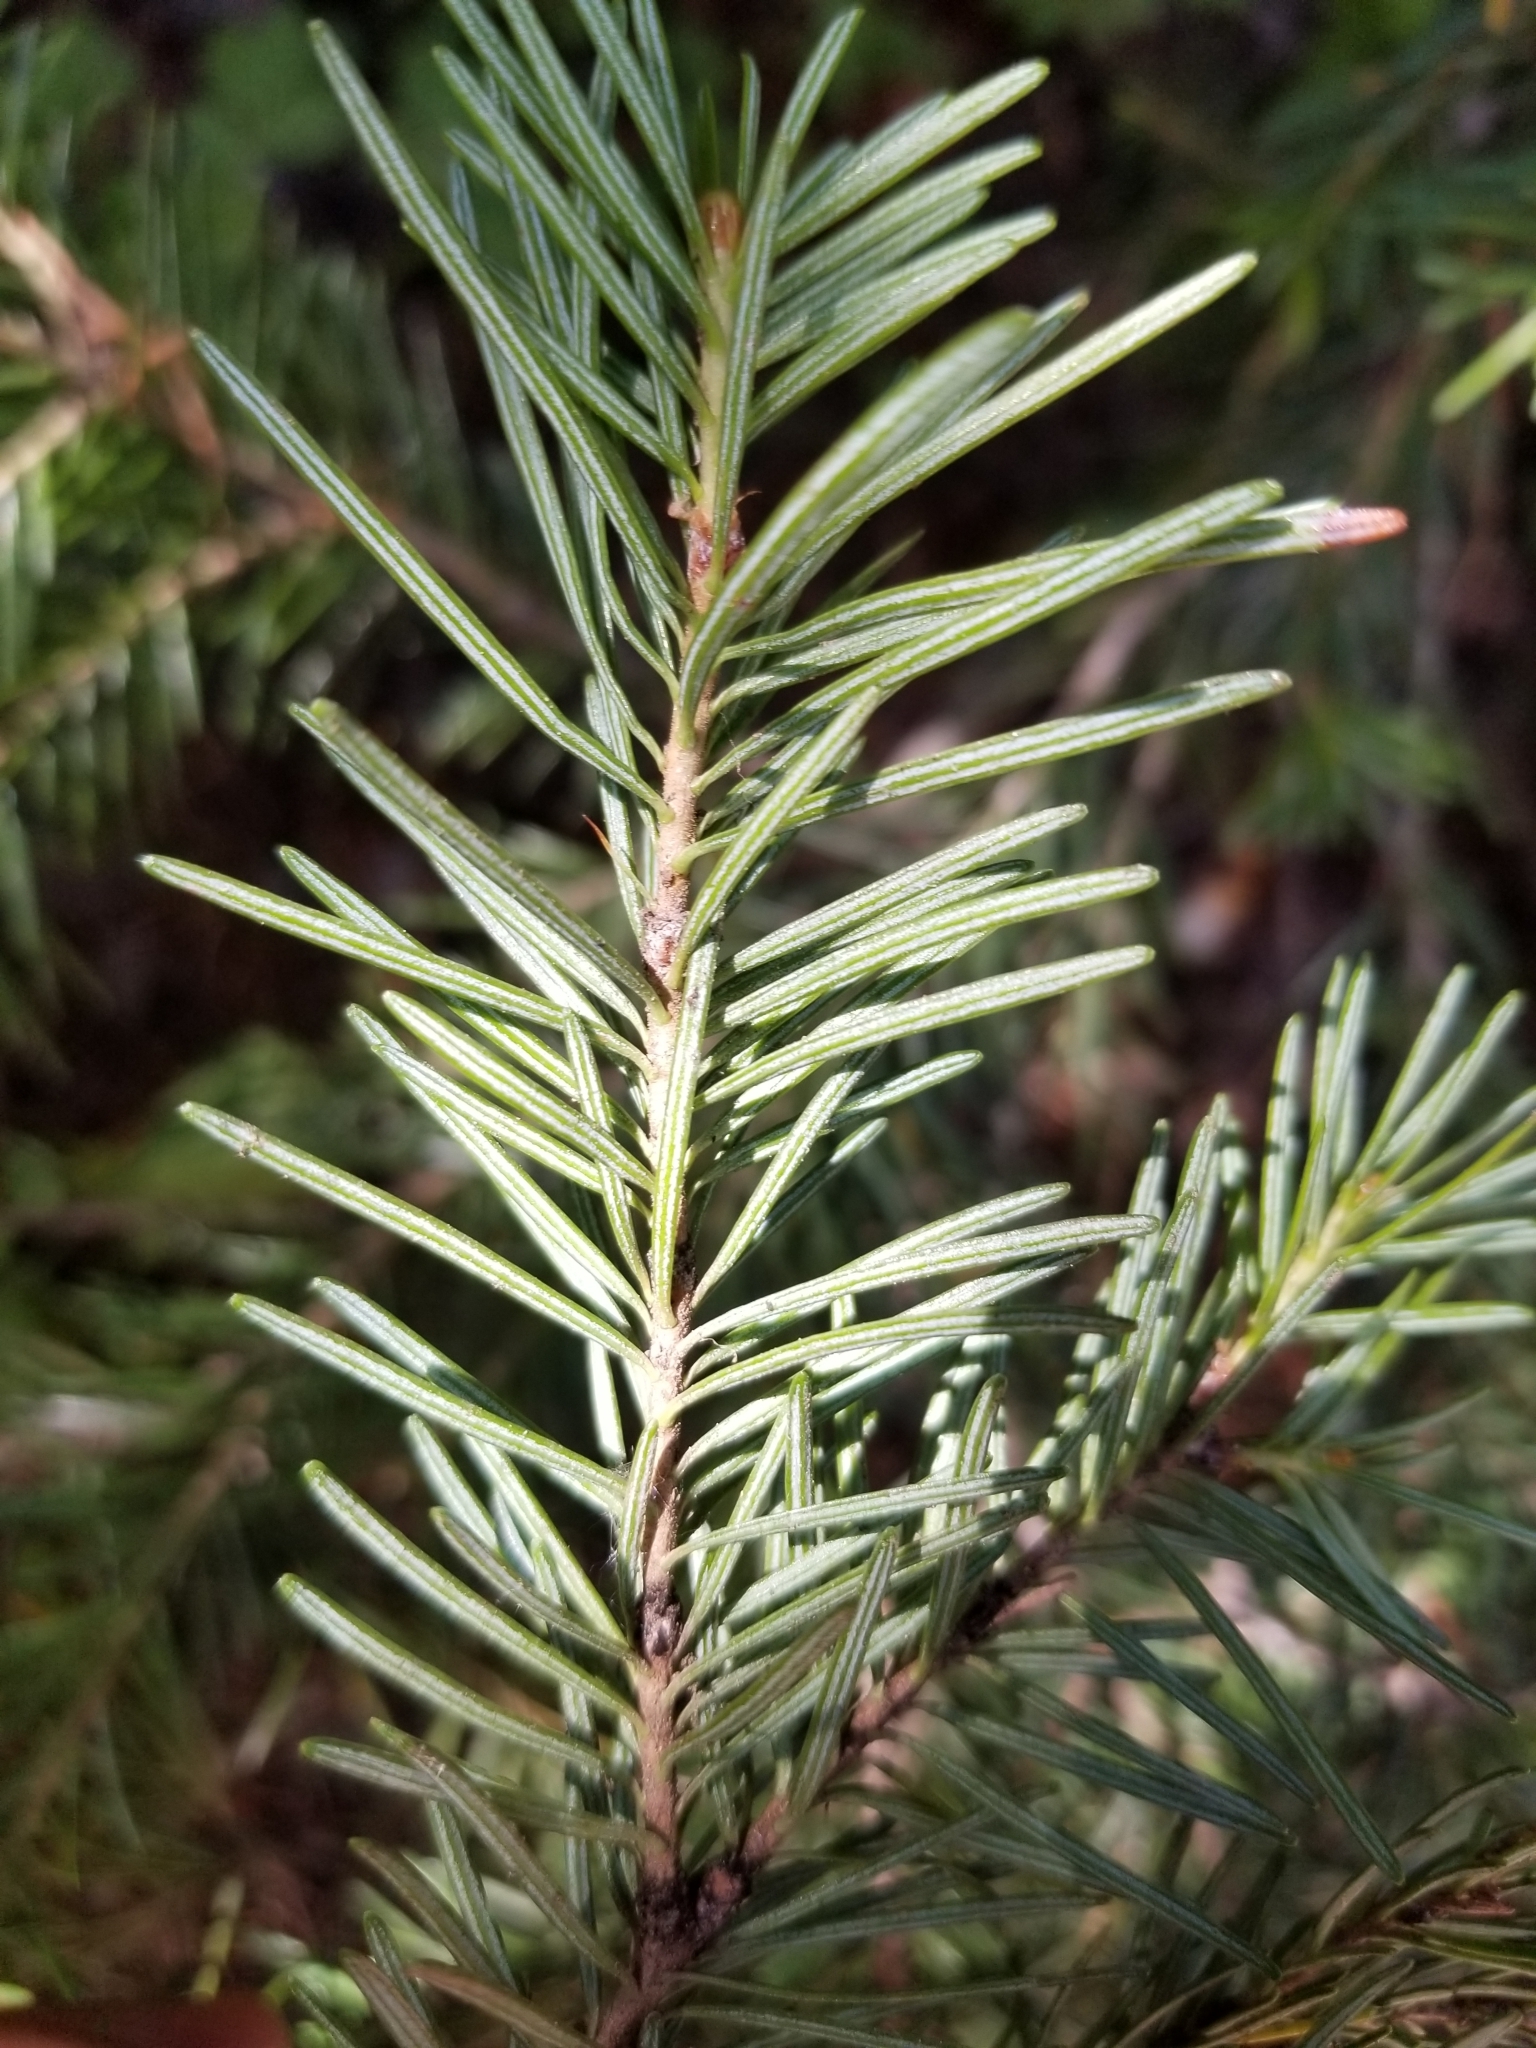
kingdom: Plantae
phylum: Tracheophyta
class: Pinopsida
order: Pinales
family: Pinaceae
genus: Abies
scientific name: Abies lasiocarpa
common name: Subalpine fir
